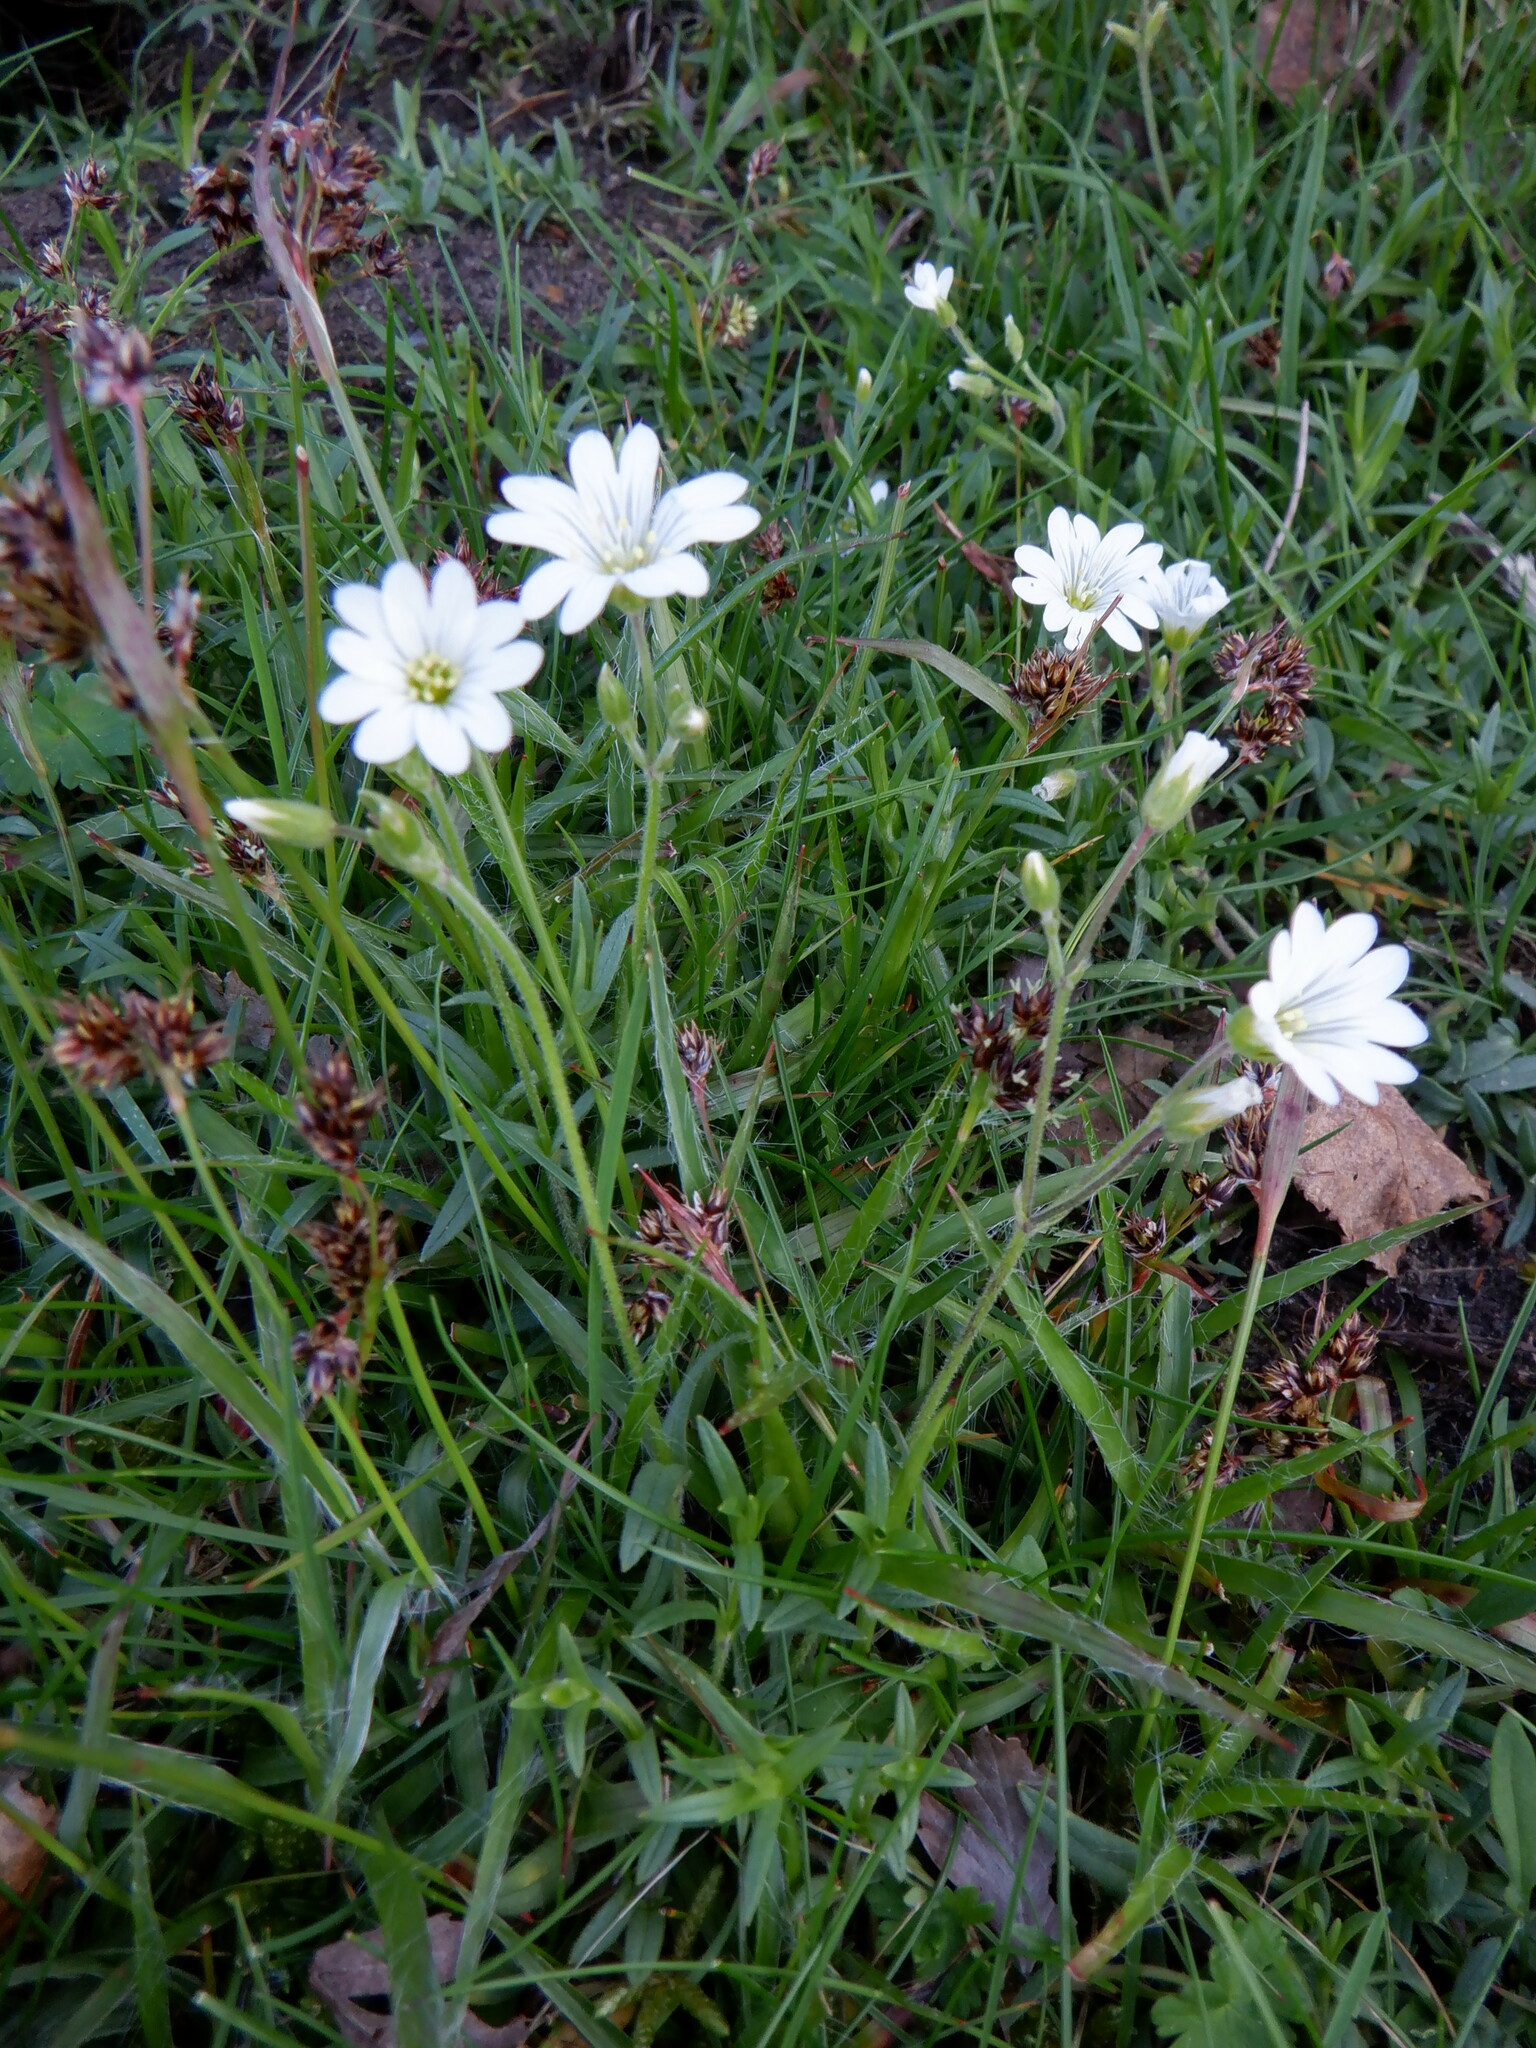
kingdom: Plantae
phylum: Tracheophyta
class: Magnoliopsida
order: Caryophyllales
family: Caryophyllaceae
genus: Cerastium
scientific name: Cerastium arvense
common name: Field mouse-ear
